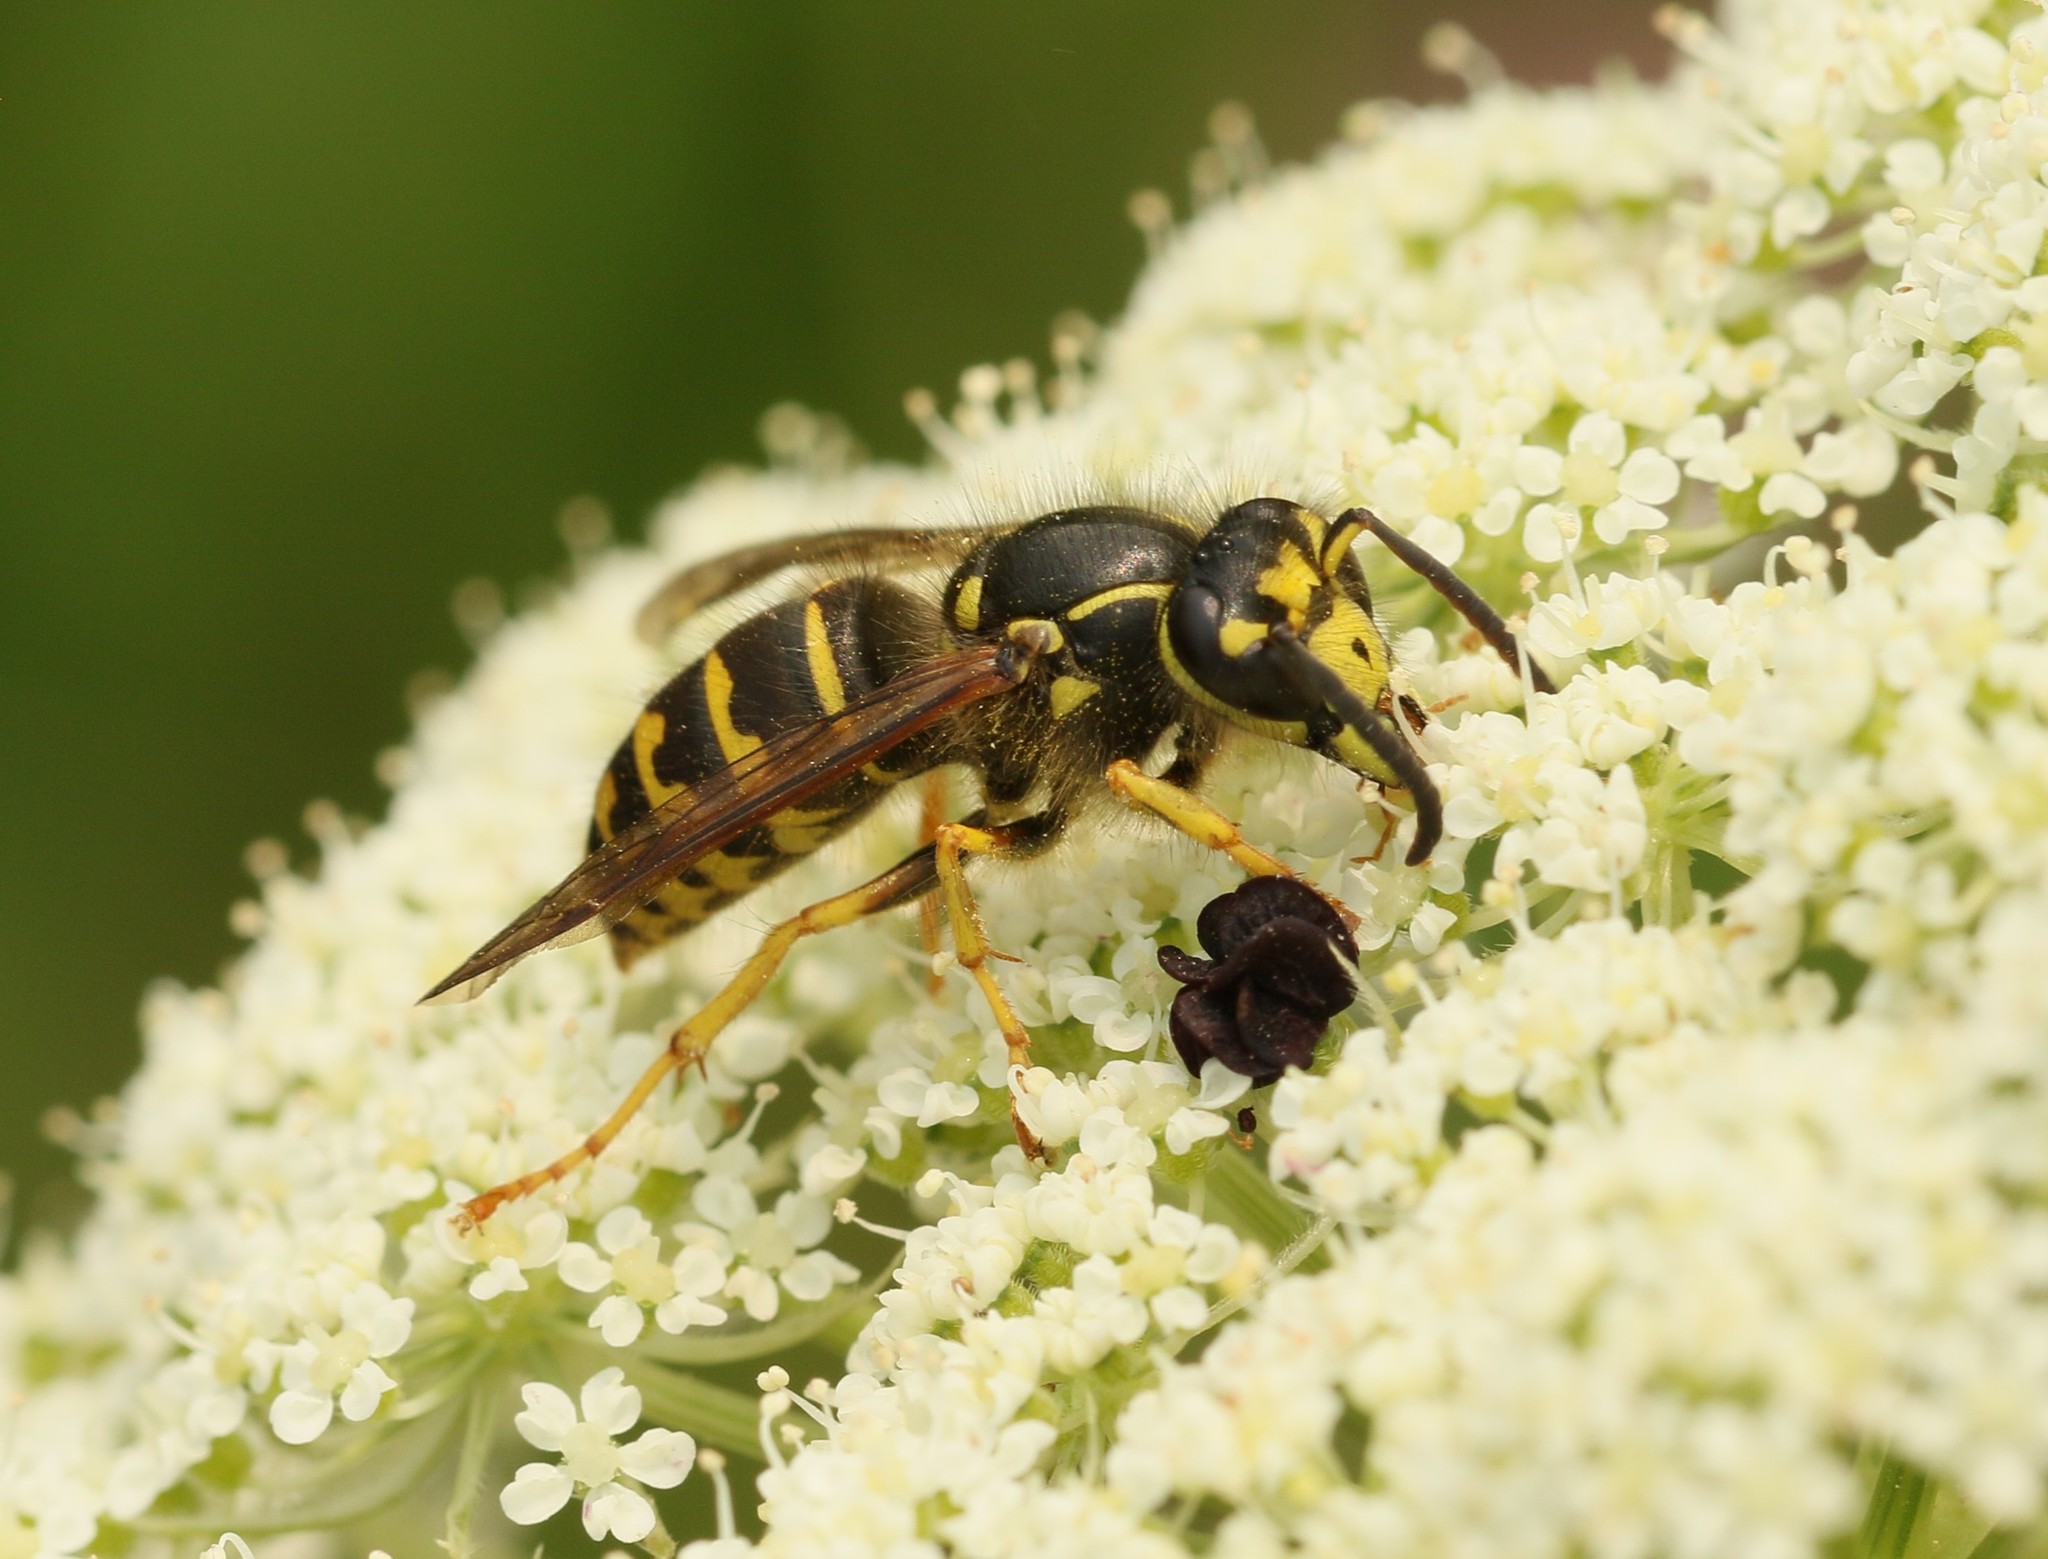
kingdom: Animalia
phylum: Arthropoda
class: Insecta
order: Hymenoptera
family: Vespidae
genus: Dolichovespula
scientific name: Dolichovespula arenaria
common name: Aerial yellowjacket
